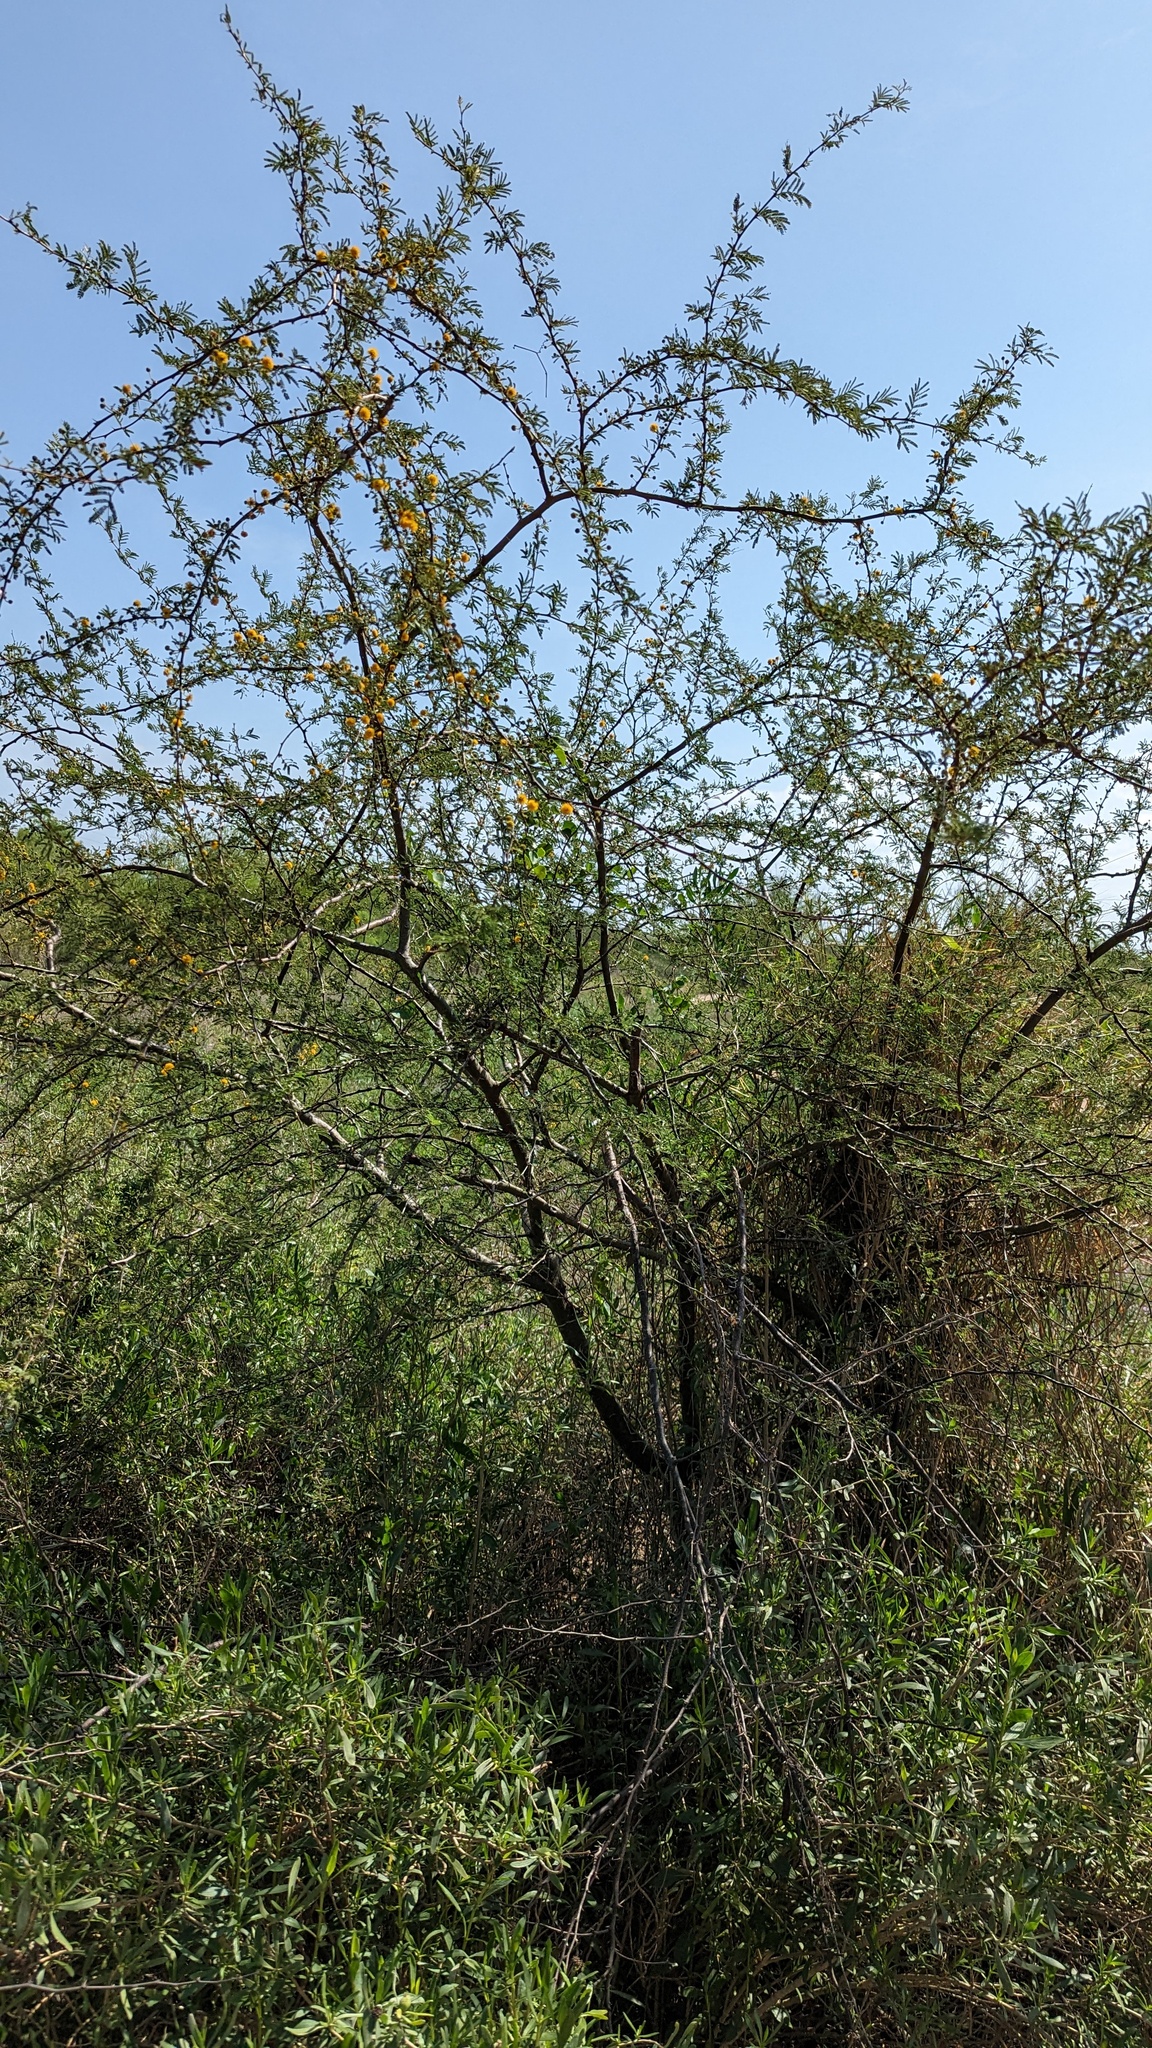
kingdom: Plantae
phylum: Tracheophyta
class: Magnoliopsida
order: Fabales
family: Fabaceae
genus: Vachellia
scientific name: Vachellia farnesiana
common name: Sweet acacia
